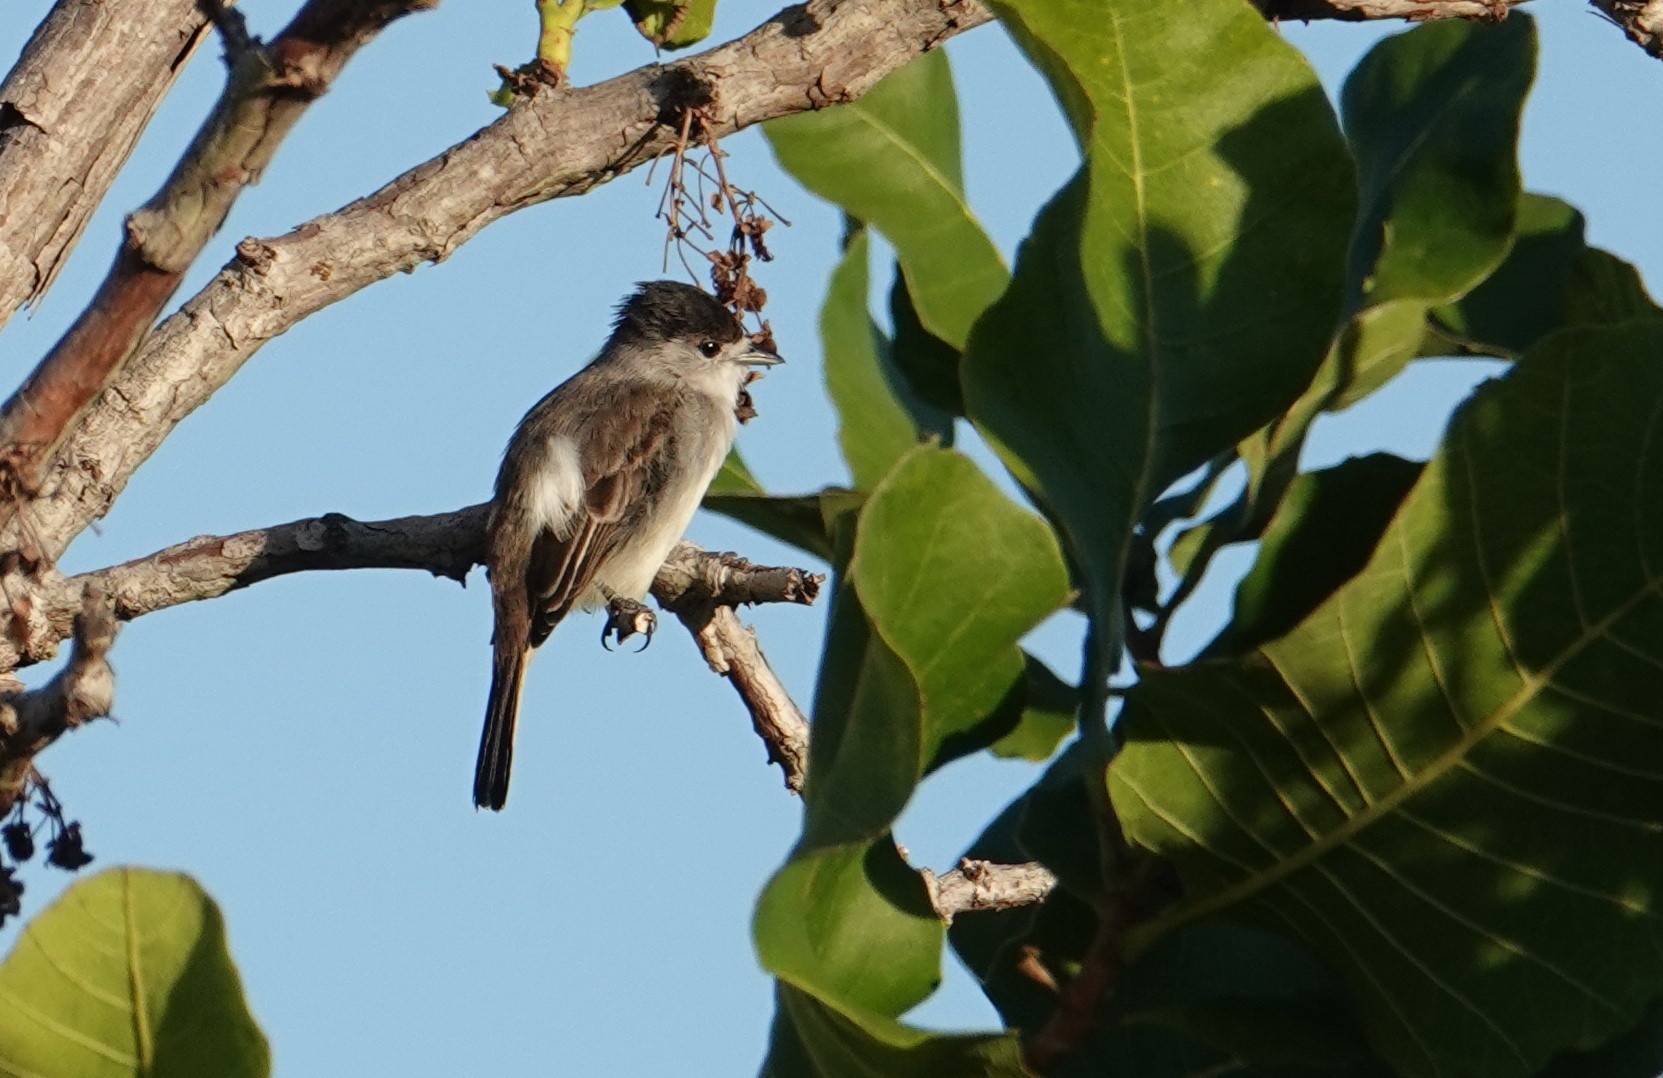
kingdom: Animalia
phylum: Chordata
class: Aves
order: Passeriformes
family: Cotingidae
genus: Xenopsaris
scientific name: Xenopsaris albinucha
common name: White-naped xenopsaris
